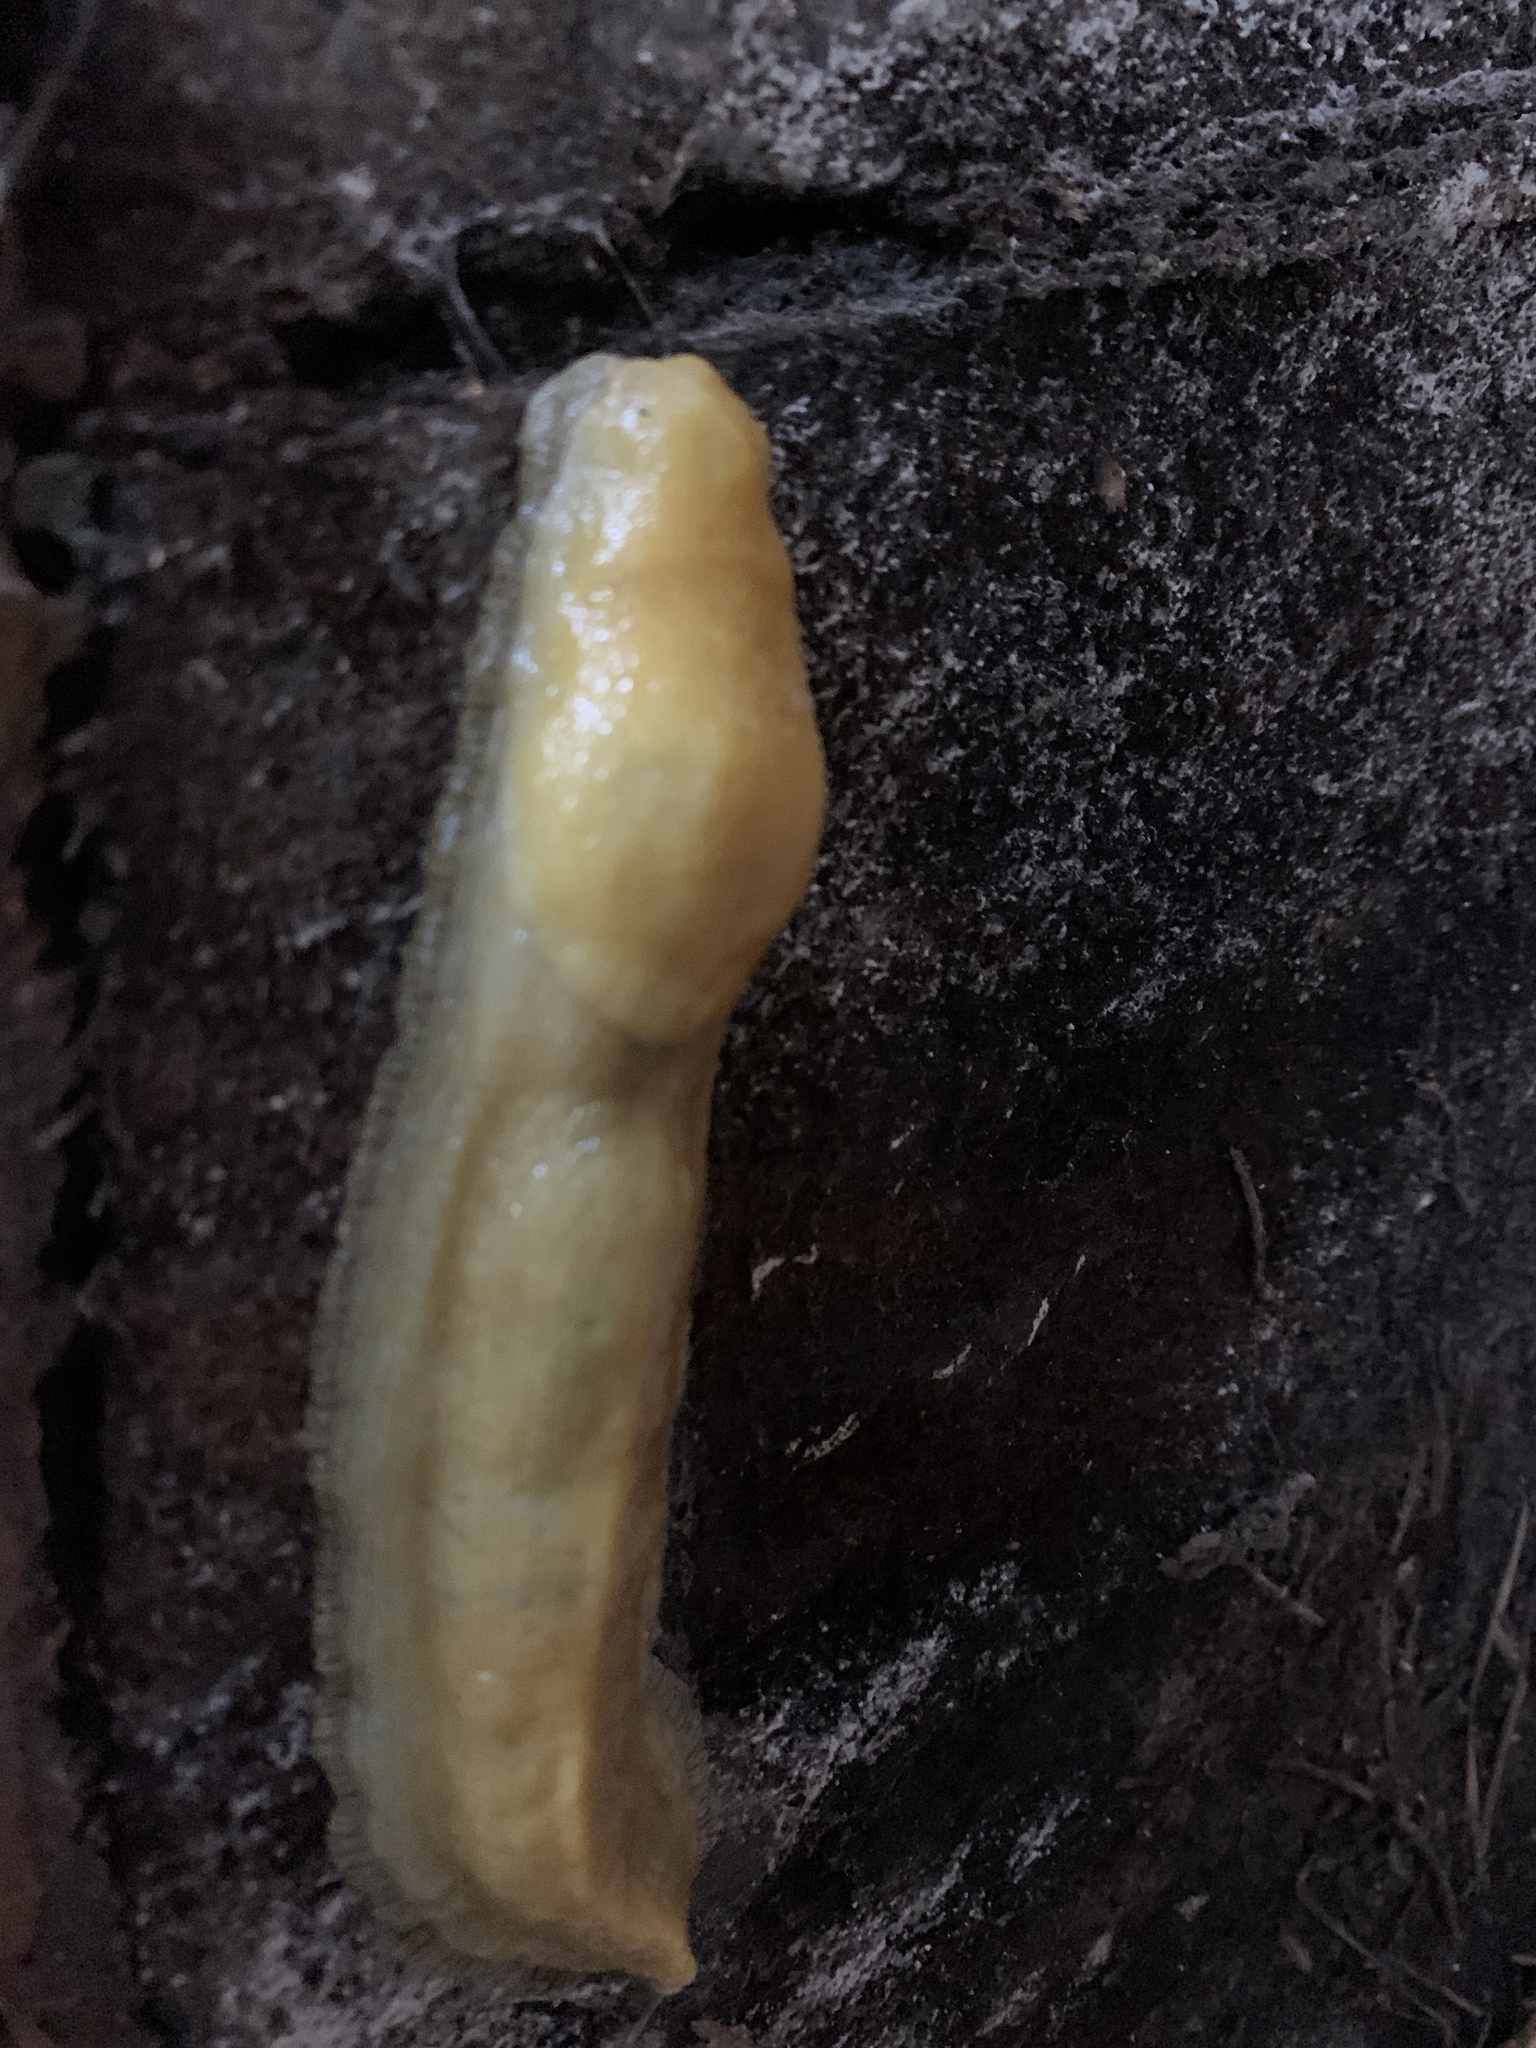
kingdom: Animalia
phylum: Mollusca
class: Gastropoda
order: Stylommatophora
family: Ariolimacidae
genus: Ariolimax
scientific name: Ariolimax buttoni
